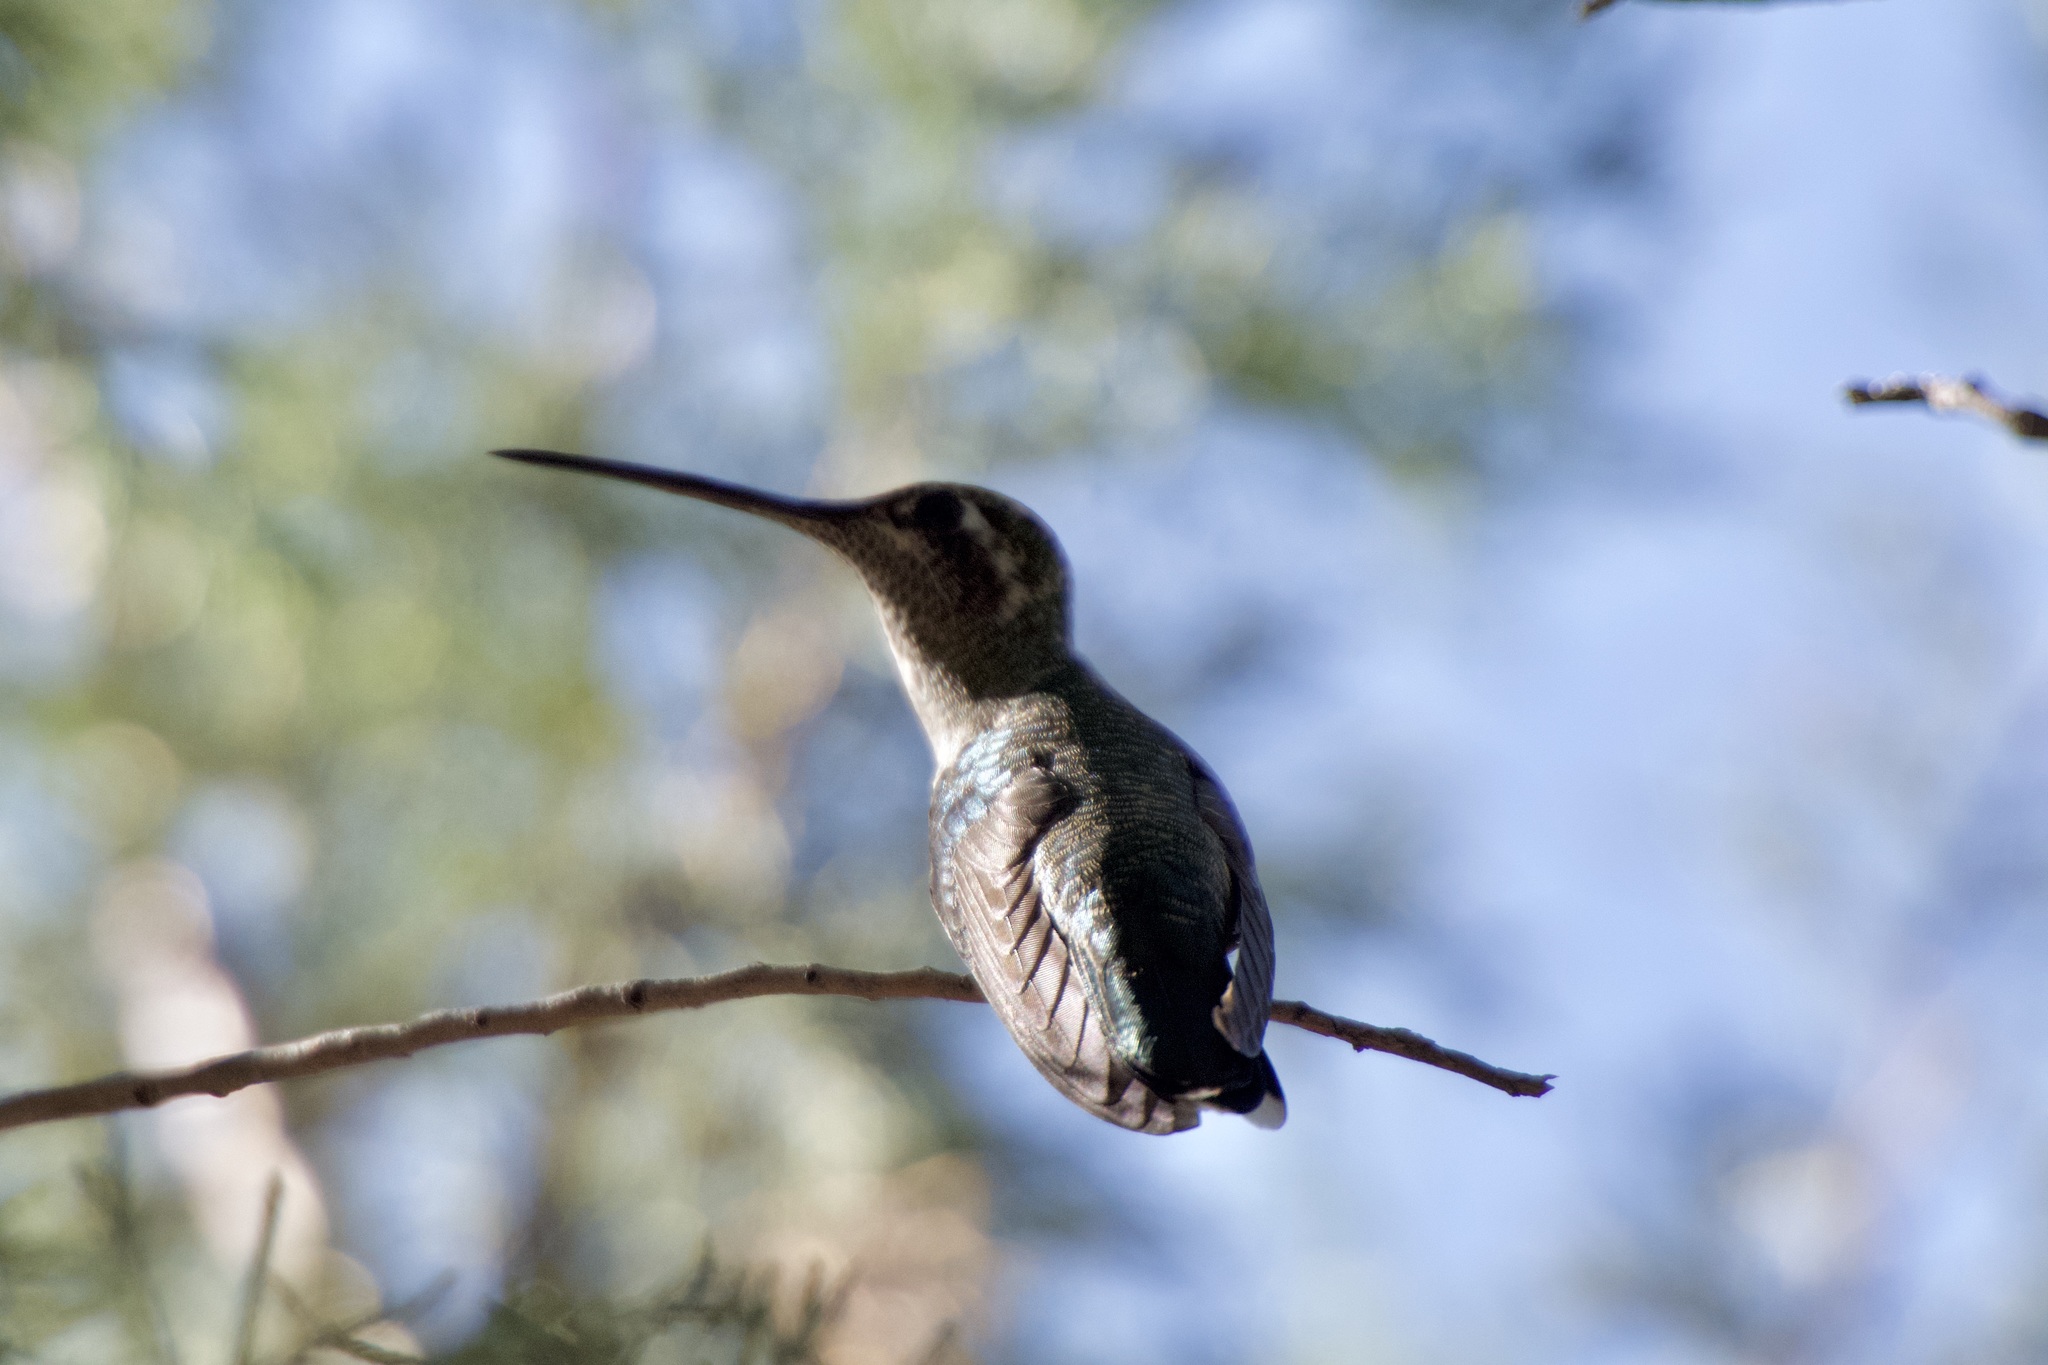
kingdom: Animalia
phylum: Chordata
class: Aves
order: Apodiformes
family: Trochilidae
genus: Eugenes
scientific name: Eugenes fulgens
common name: Magnificent hummingbird
